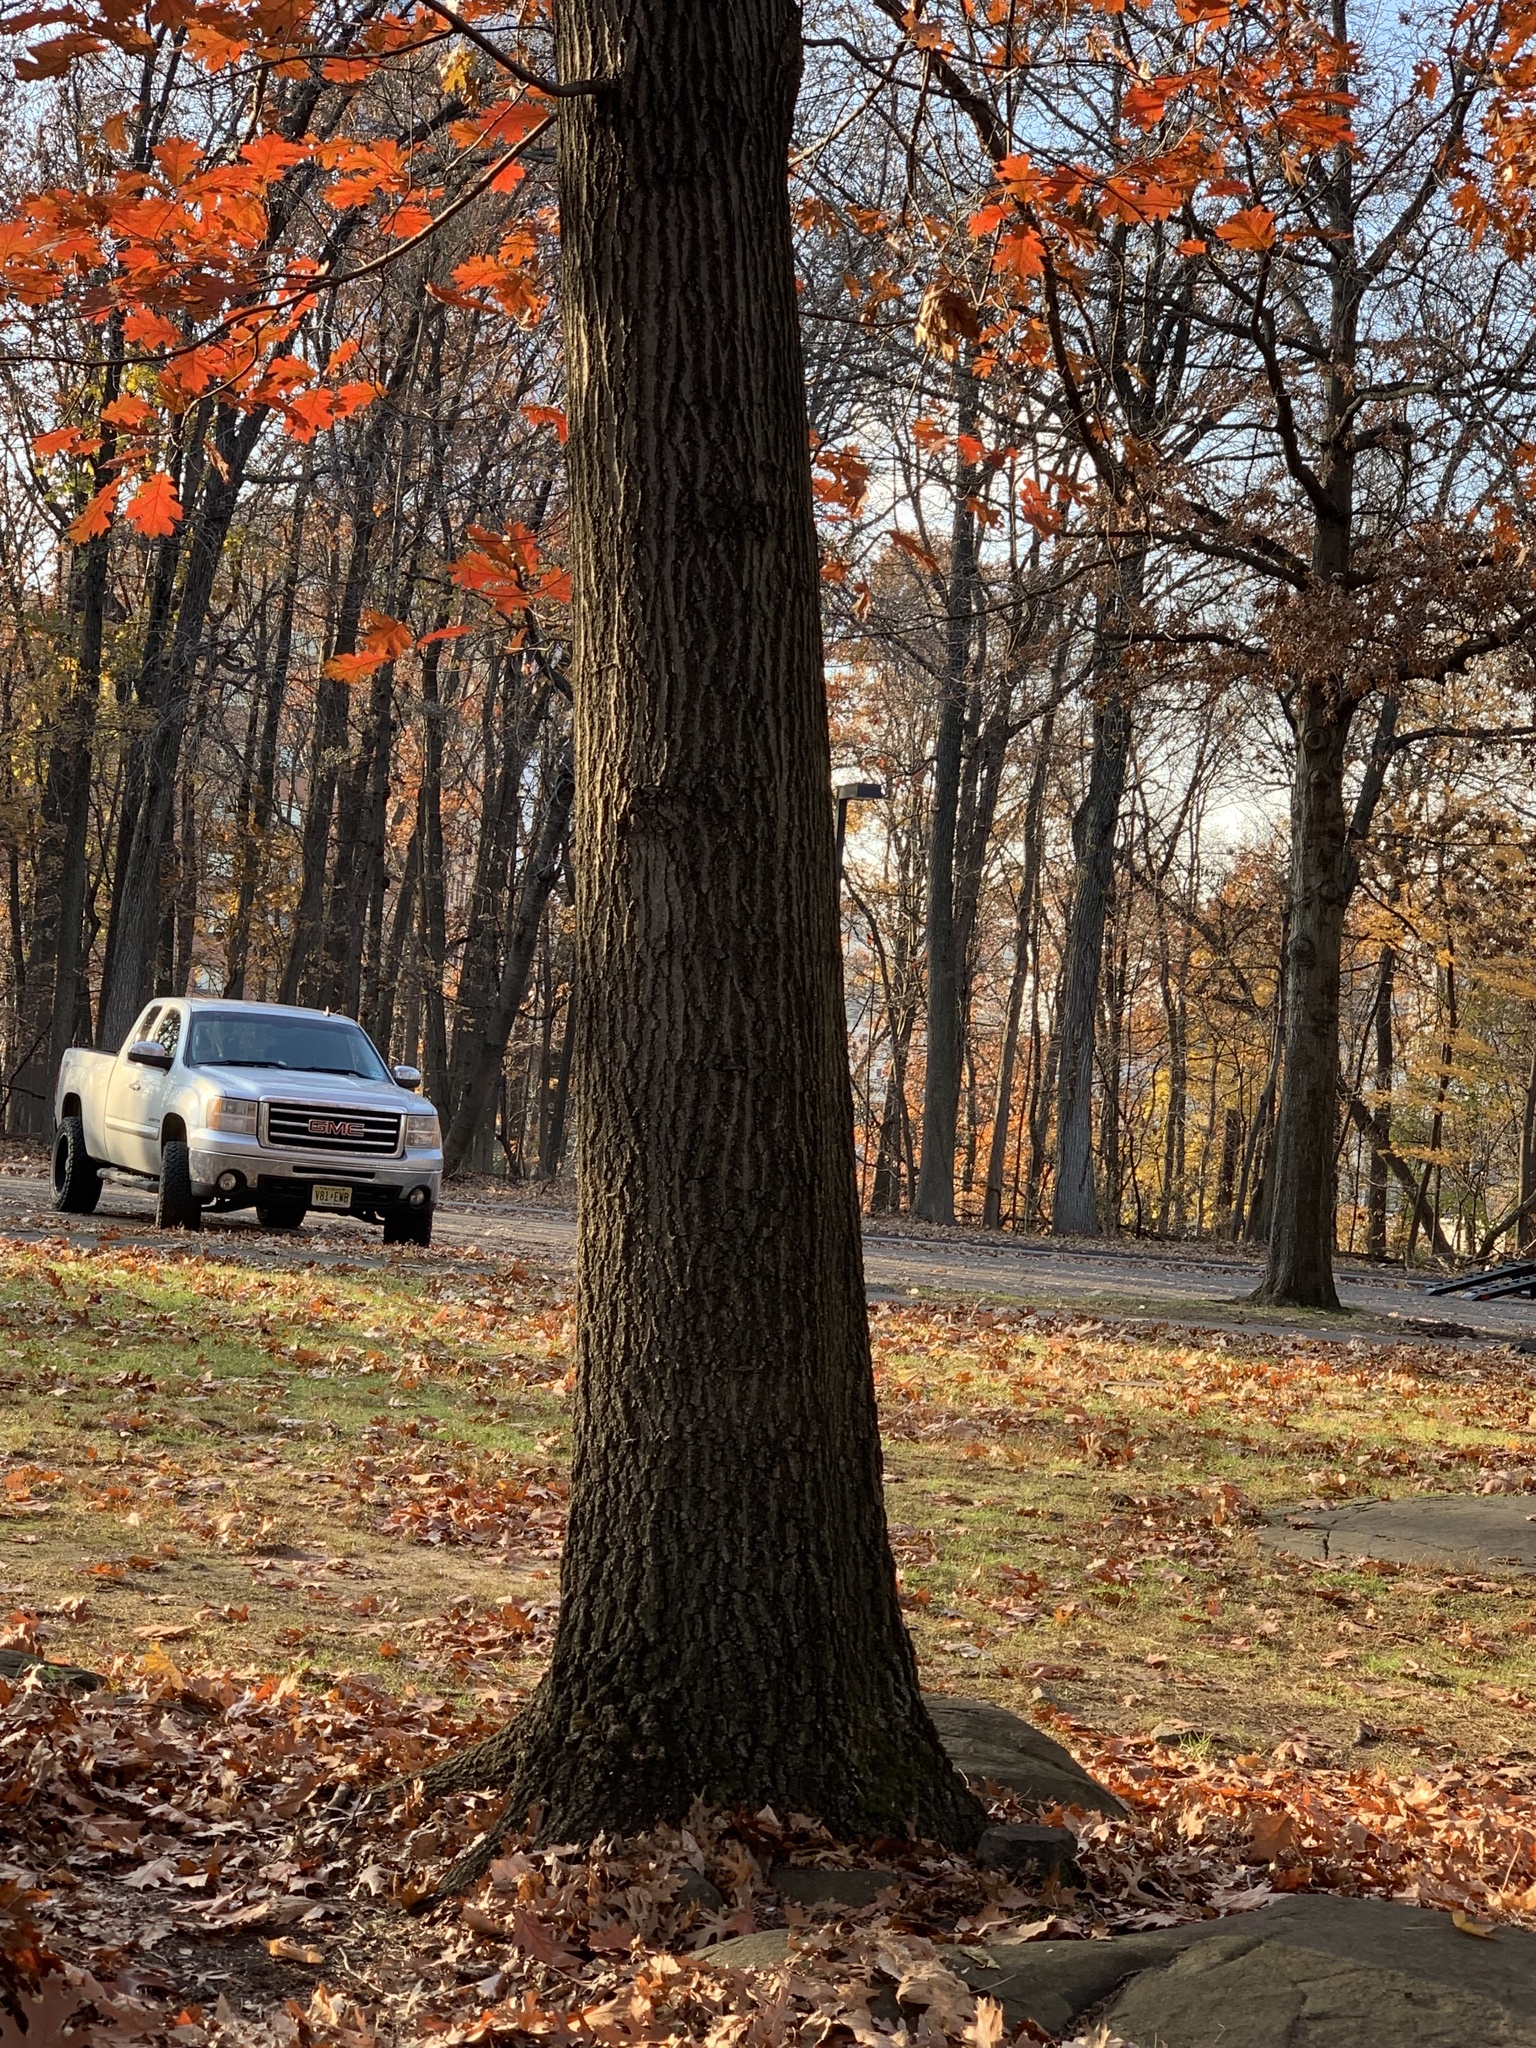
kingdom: Plantae
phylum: Tracheophyta
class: Magnoliopsida
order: Fagales
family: Fagaceae
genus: Quercus
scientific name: Quercus coccinea
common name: Scarlet oak
